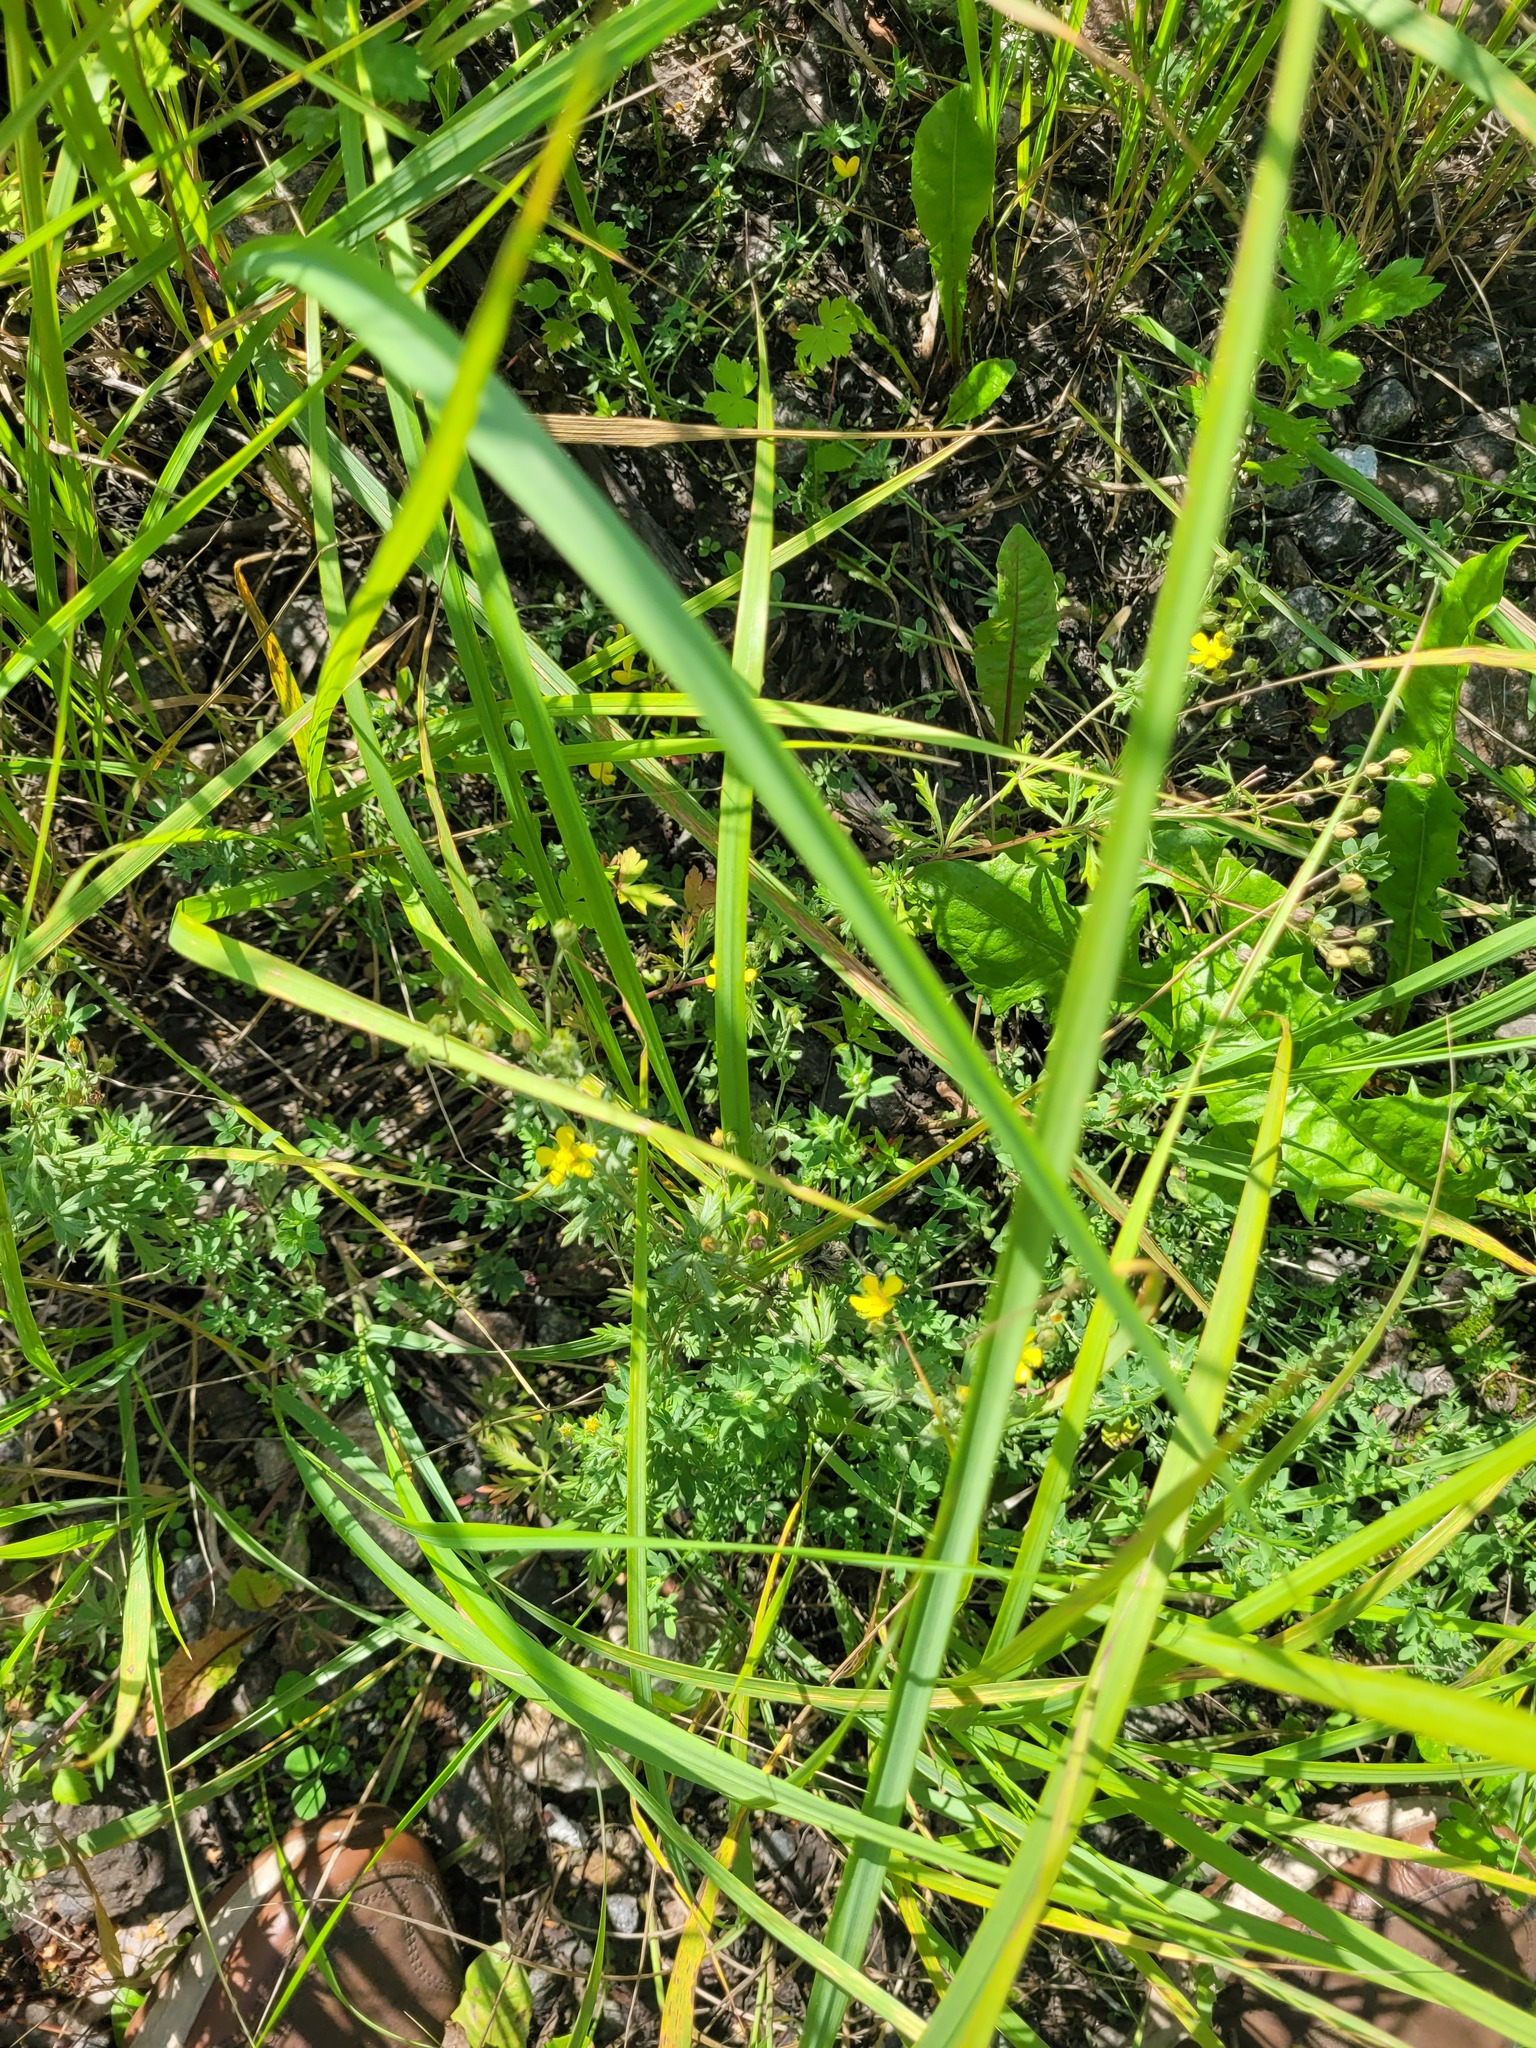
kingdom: Plantae
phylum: Tracheophyta
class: Magnoliopsida
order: Rosales
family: Rosaceae
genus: Potentilla
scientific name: Potentilla argentea
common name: Hoary cinquefoil
